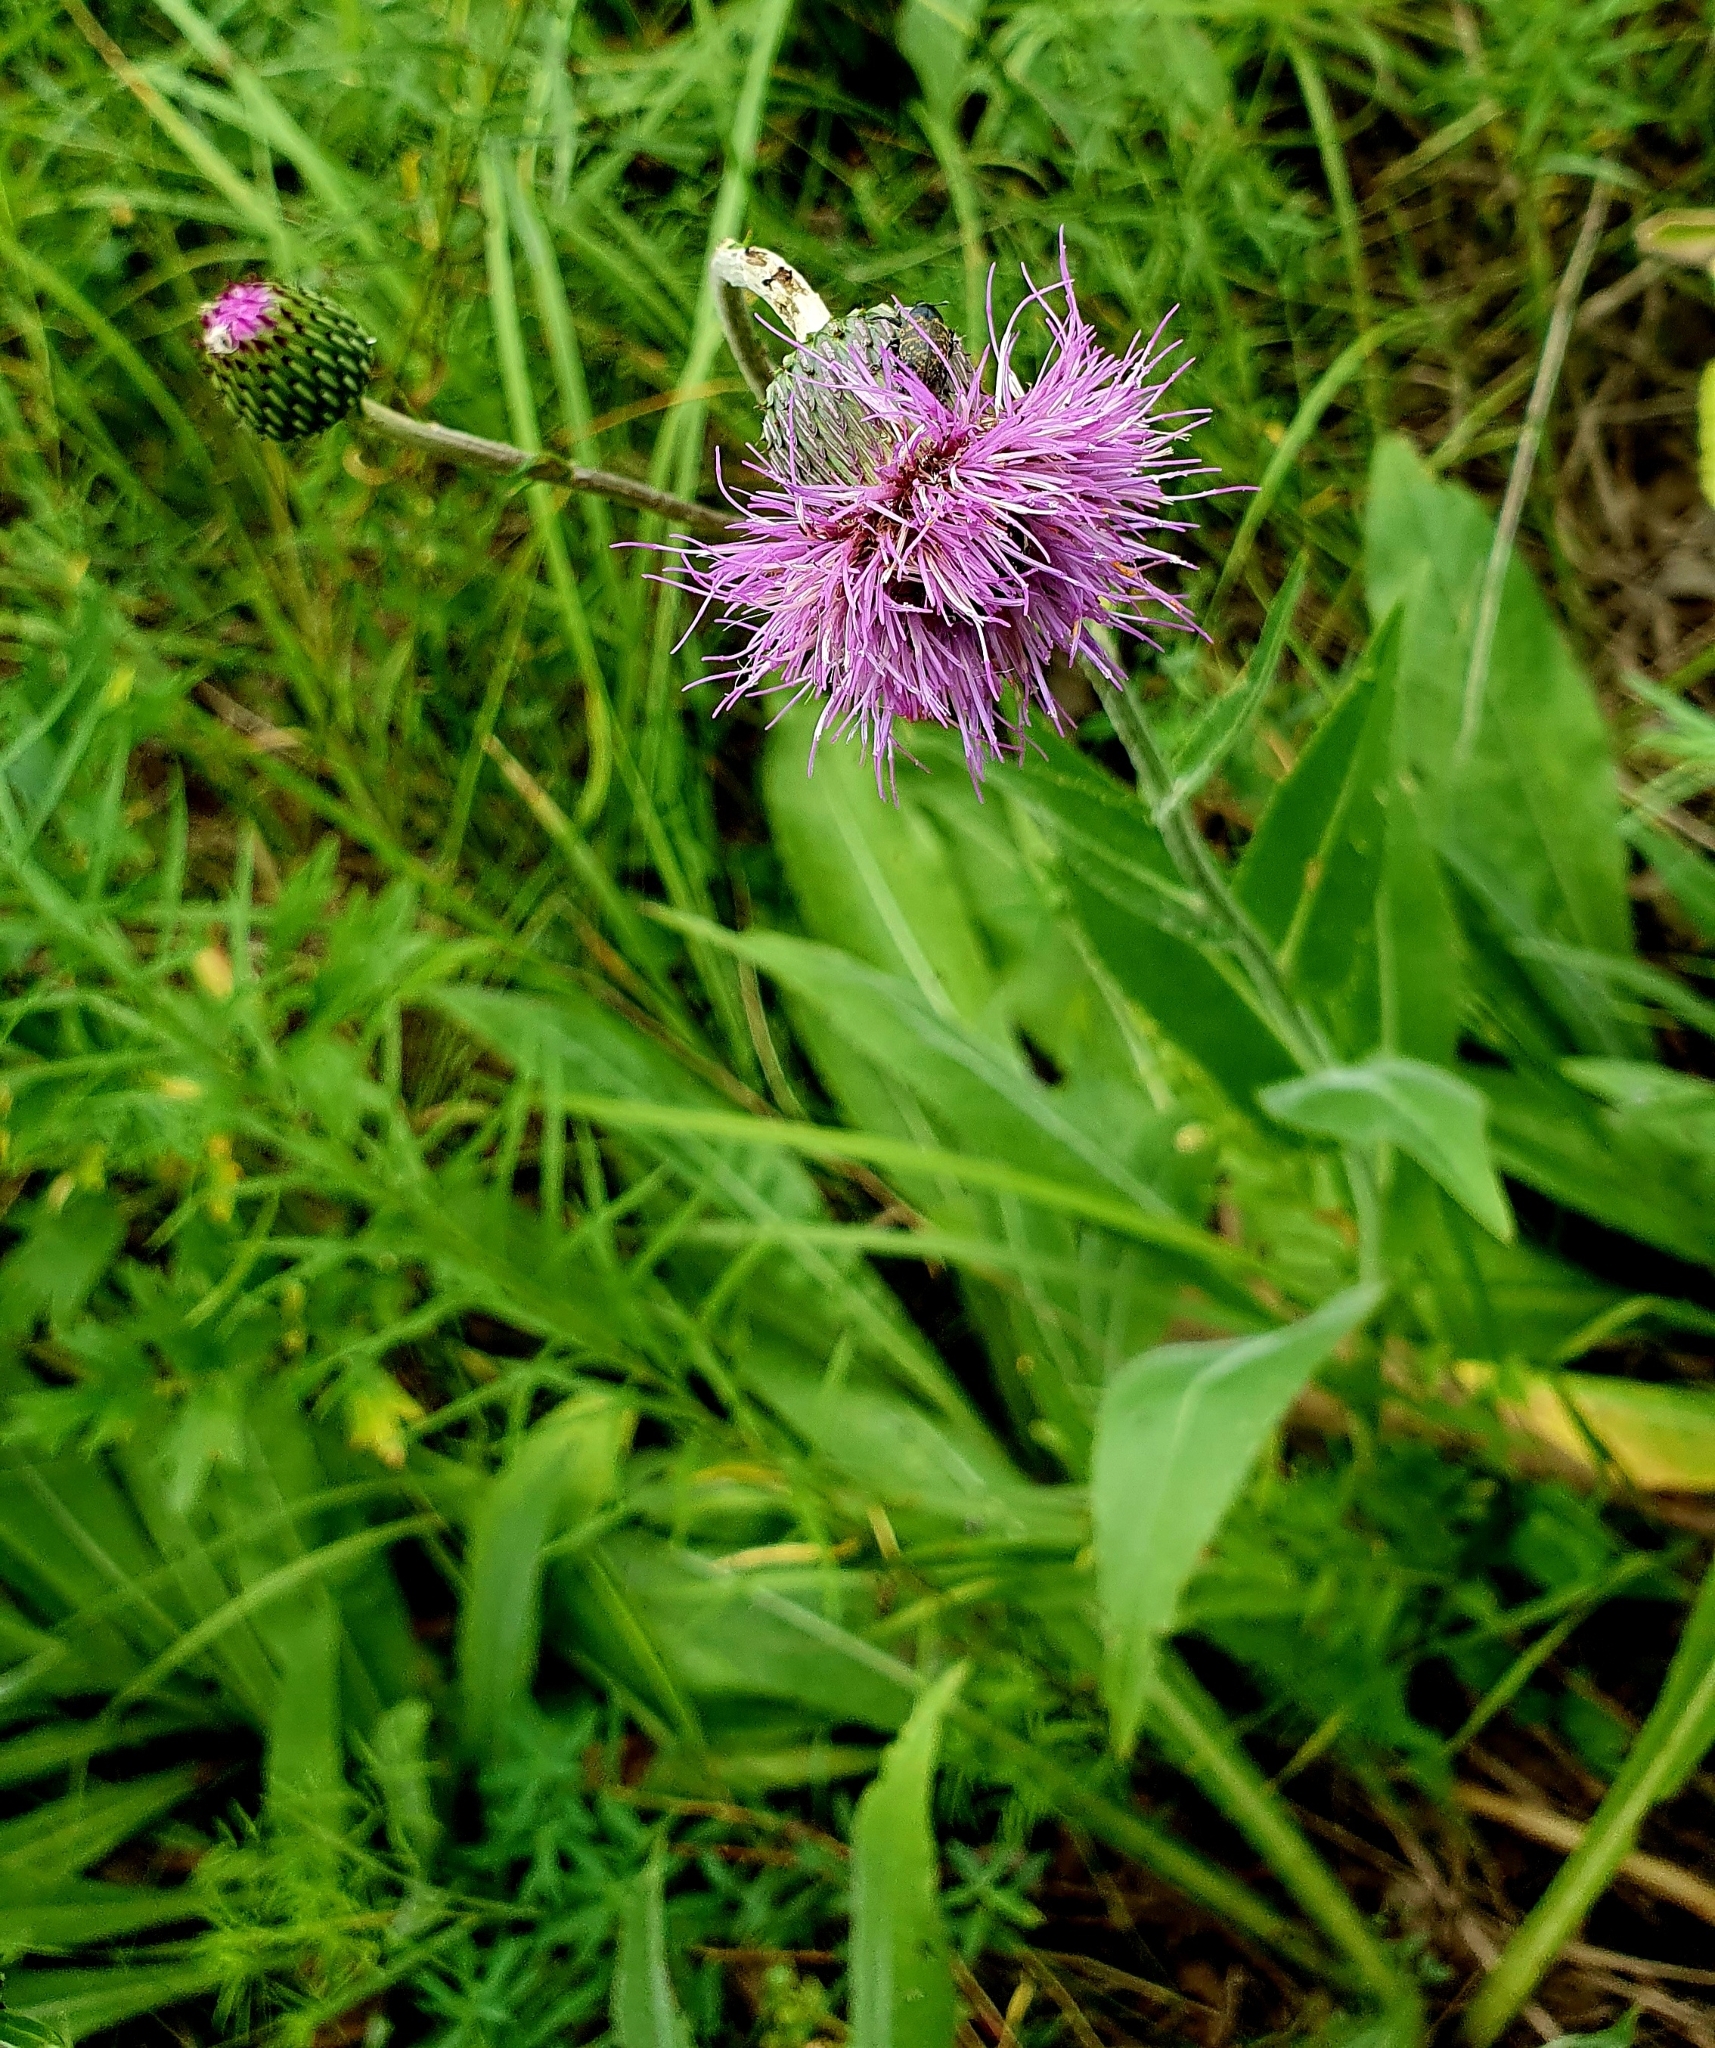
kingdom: Plantae
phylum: Tracheophyta
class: Magnoliopsida
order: Asterales
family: Asteraceae
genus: Cirsium
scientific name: Cirsium canum
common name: Queen anne's thistle
